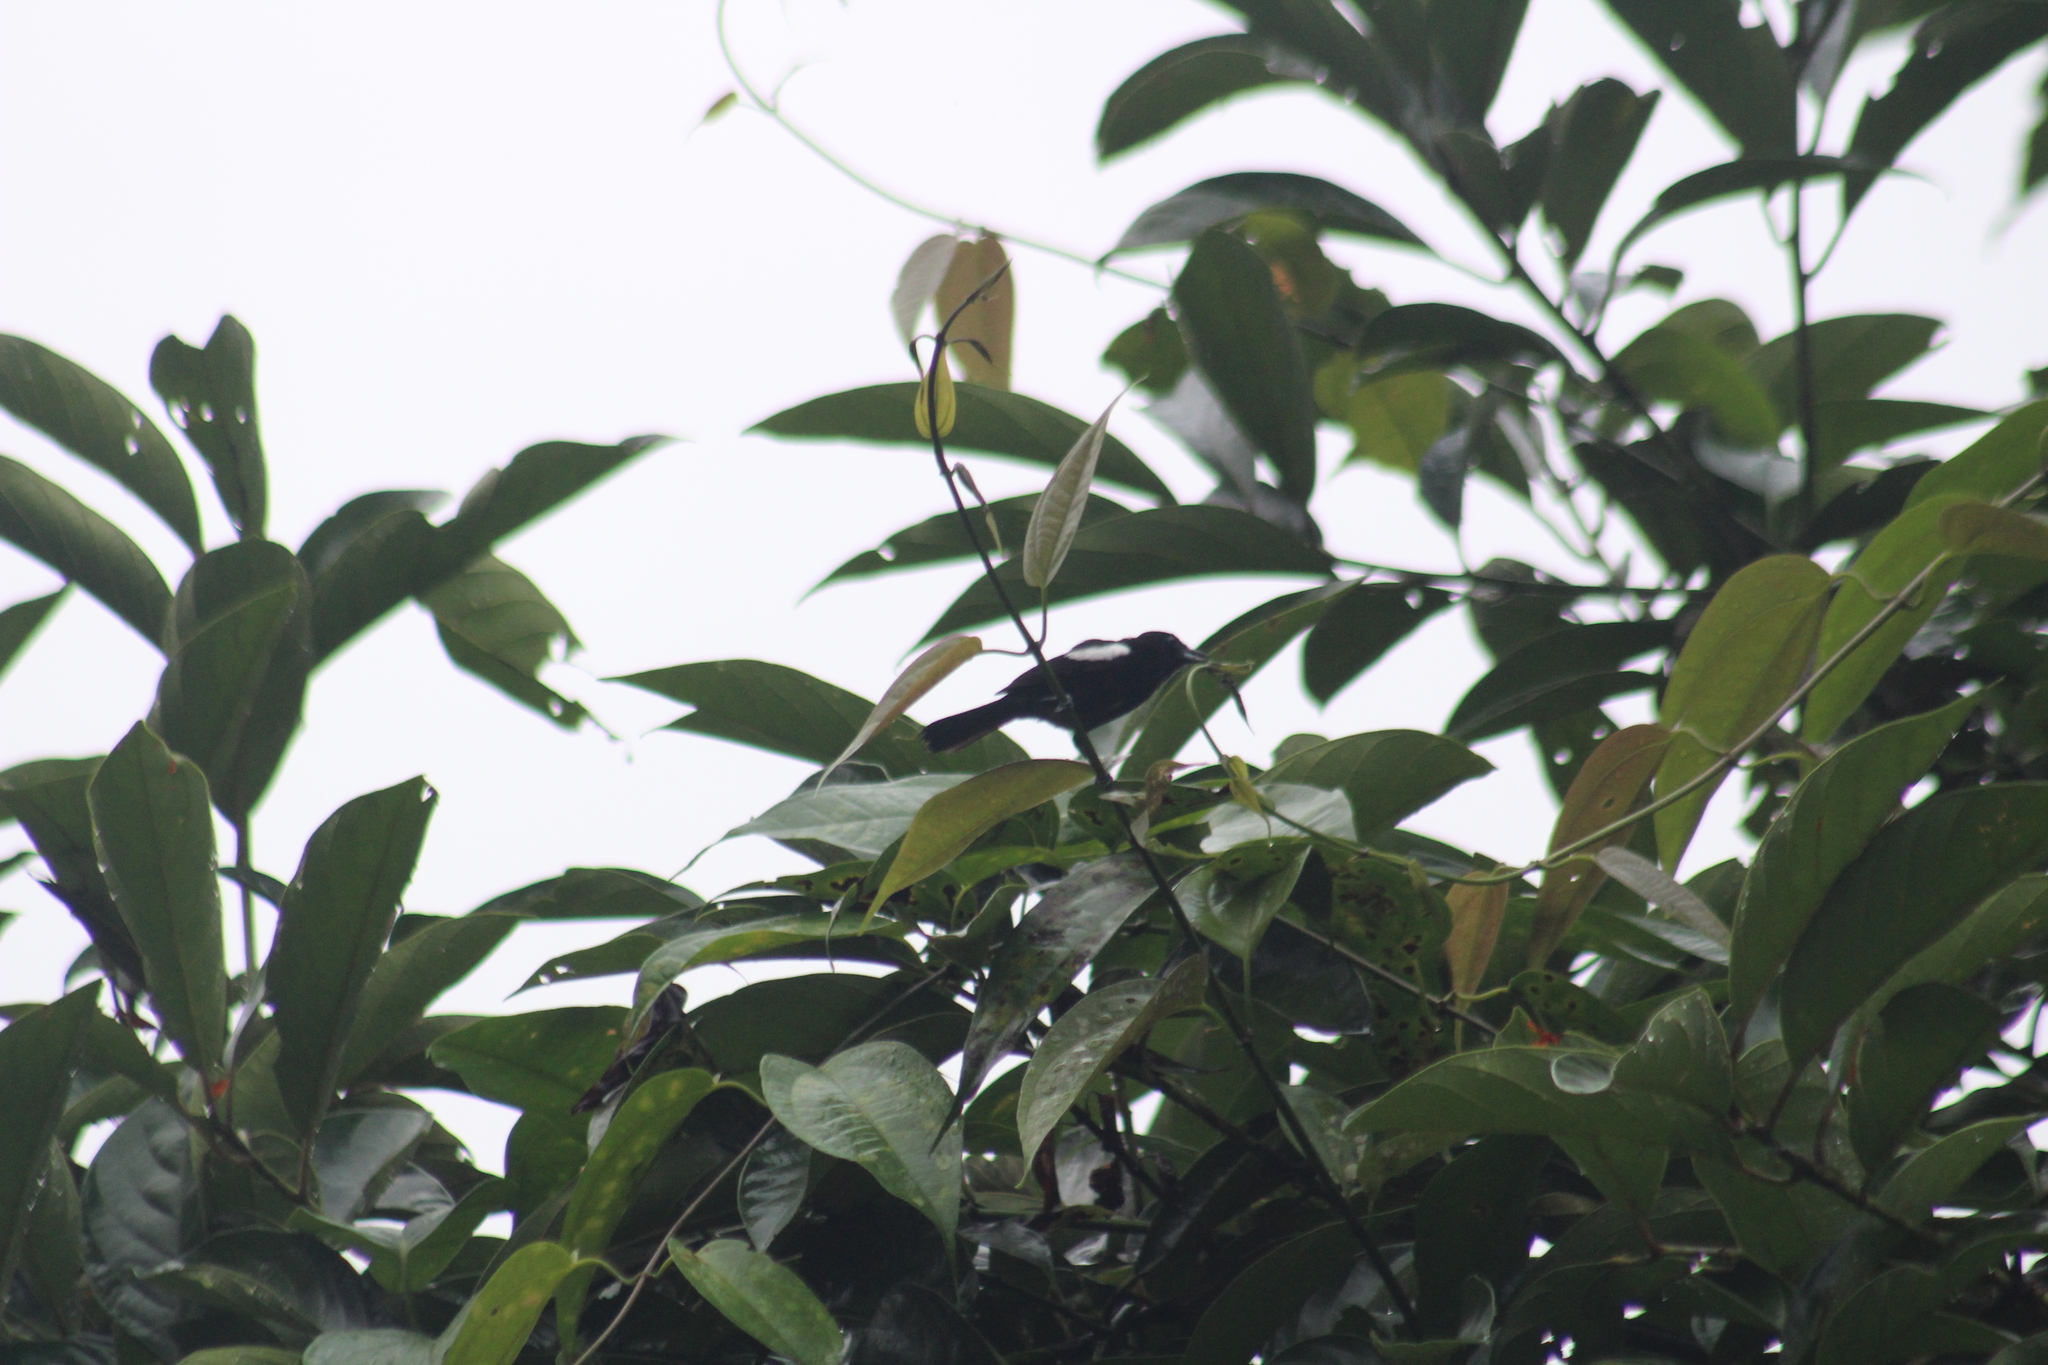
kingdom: Animalia
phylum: Chordata
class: Aves
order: Passeriformes
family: Thraupidae
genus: Loriotus
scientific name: Loriotus luctuosus
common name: White-shouldered tanager
